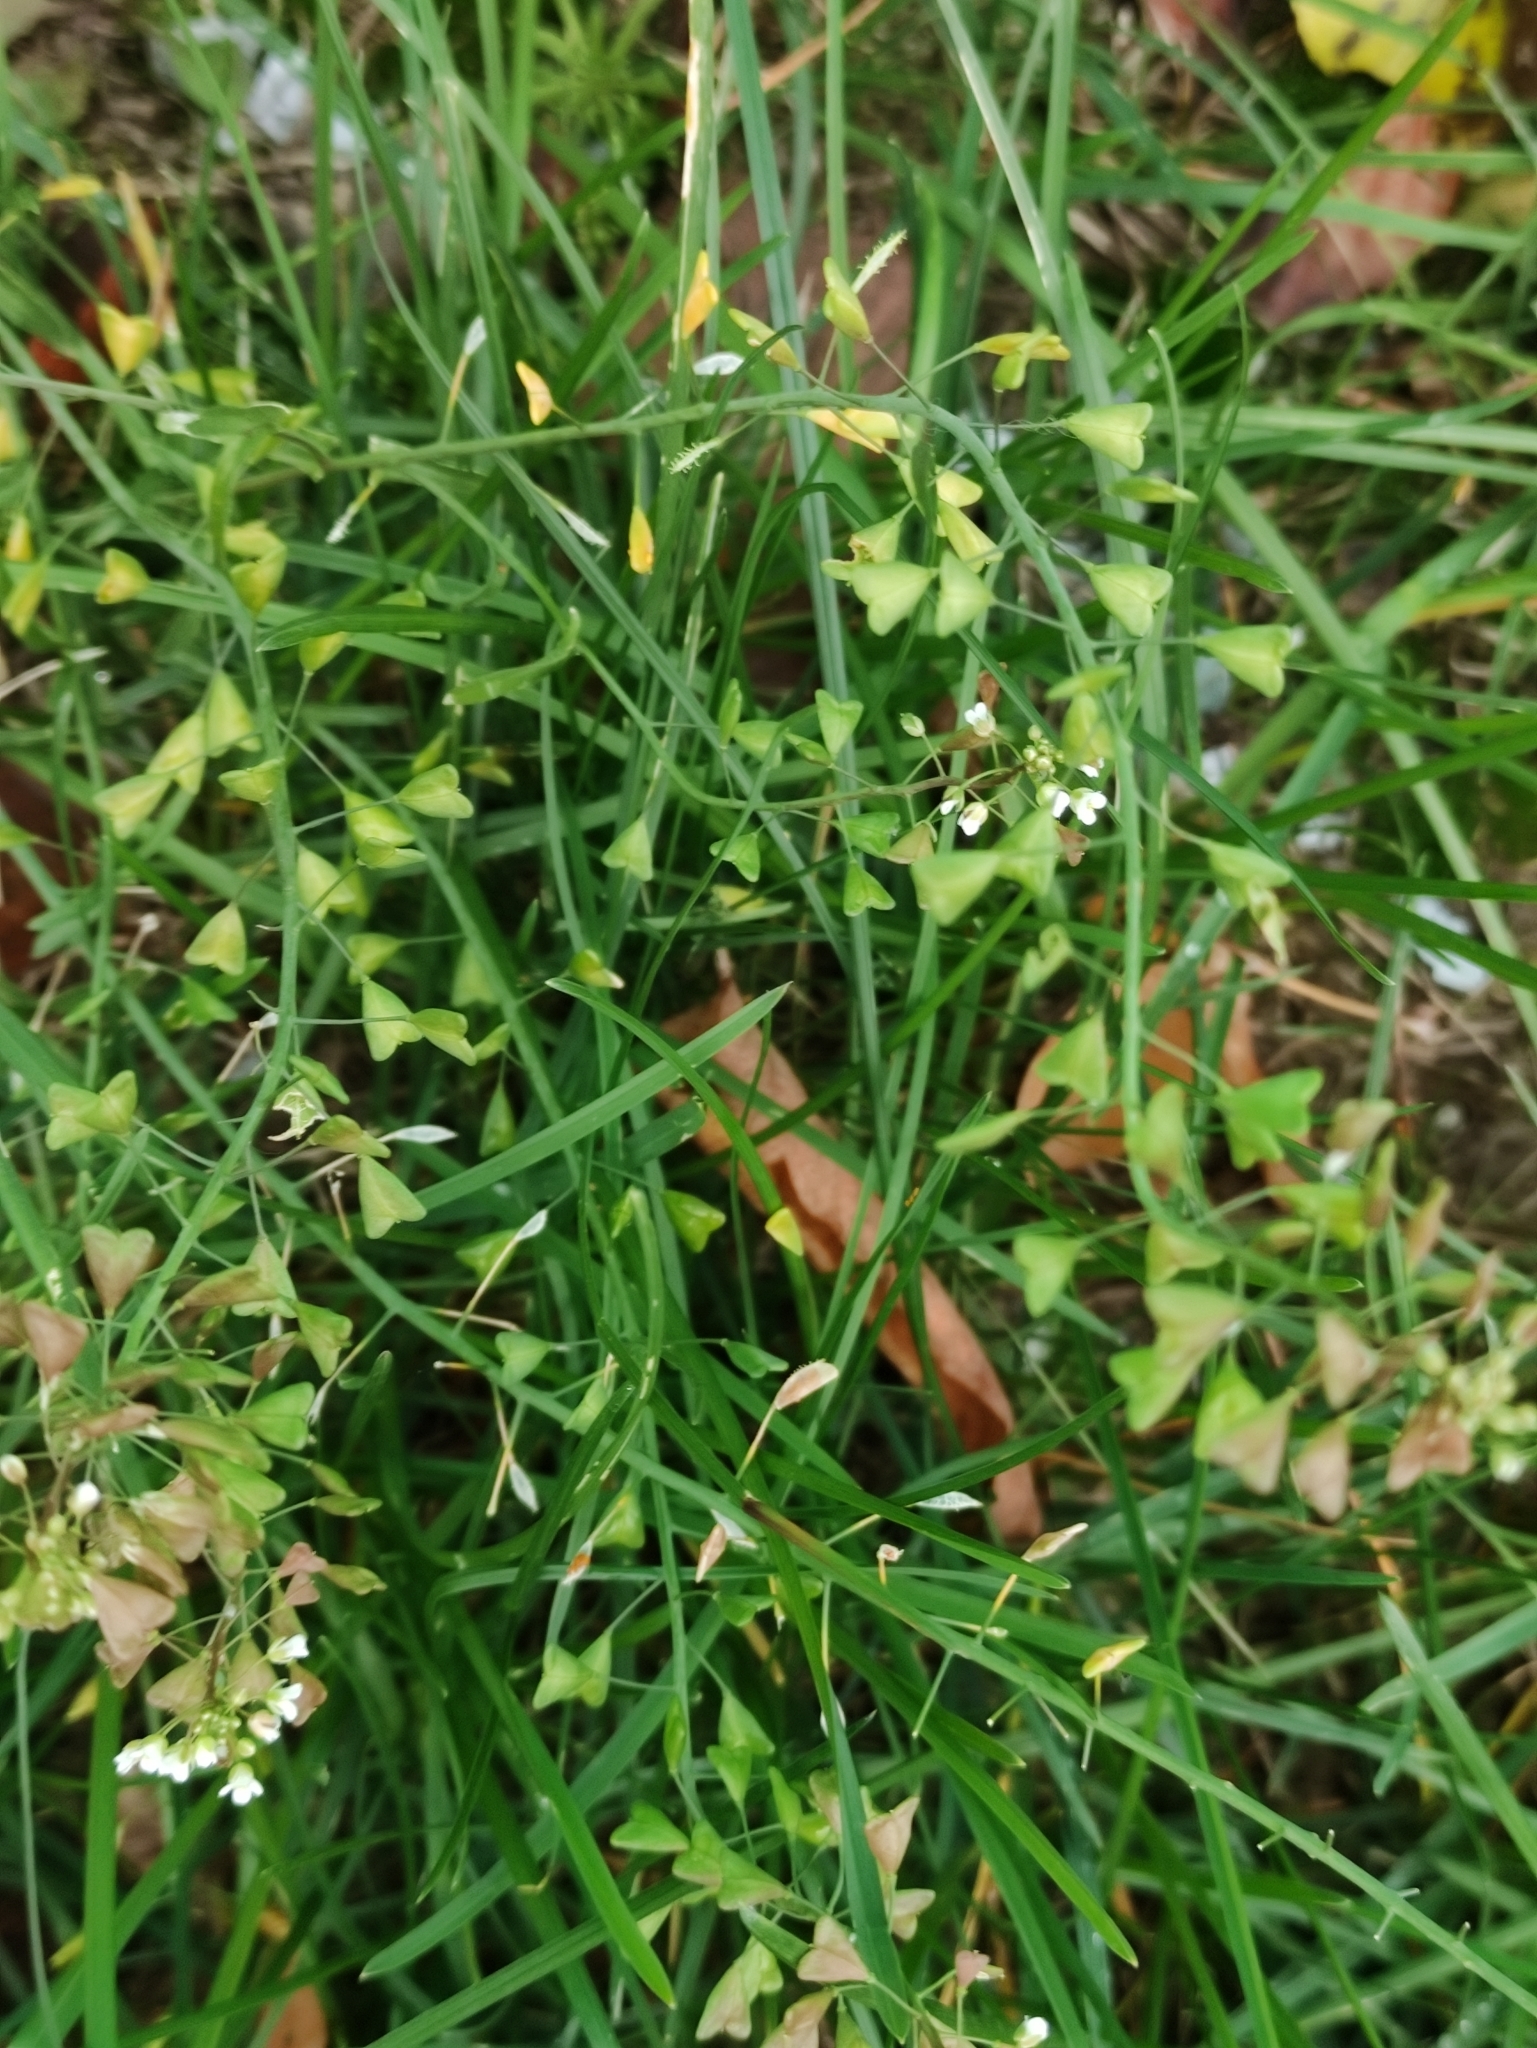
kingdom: Plantae
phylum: Tracheophyta
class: Magnoliopsida
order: Brassicales
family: Brassicaceae
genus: Capsella
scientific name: Capsella bursa-pastoris
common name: Shepherd's purse
